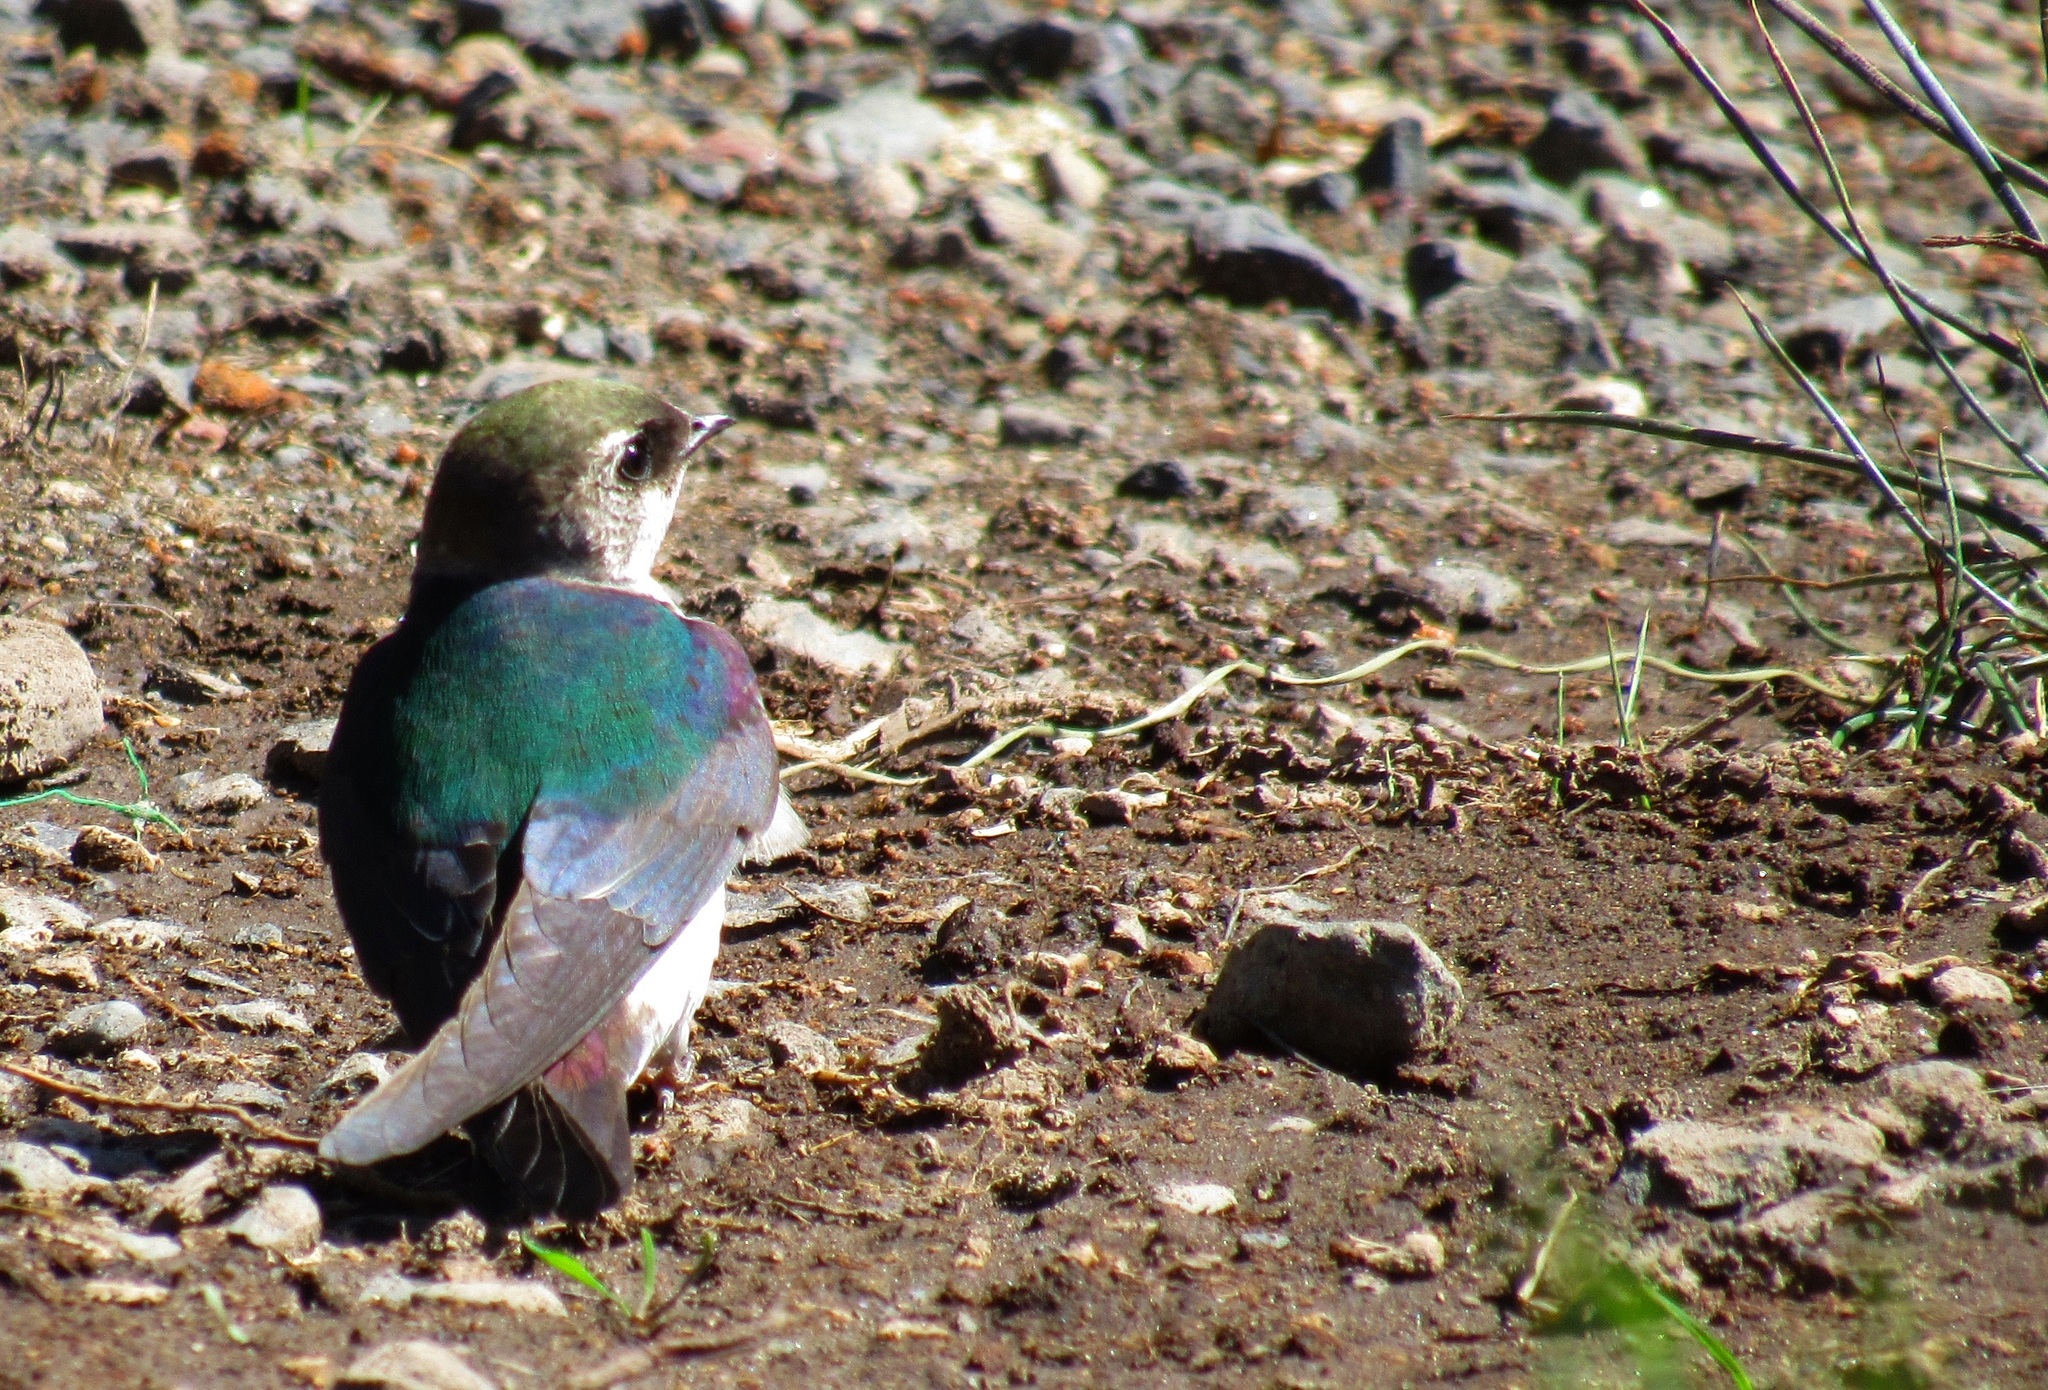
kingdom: Animalia
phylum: Chordata
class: Aves
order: Passeriformes
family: Hirundinidae
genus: Tachycineta
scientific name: Tachycineta thalassina
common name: Violet-green swallow
